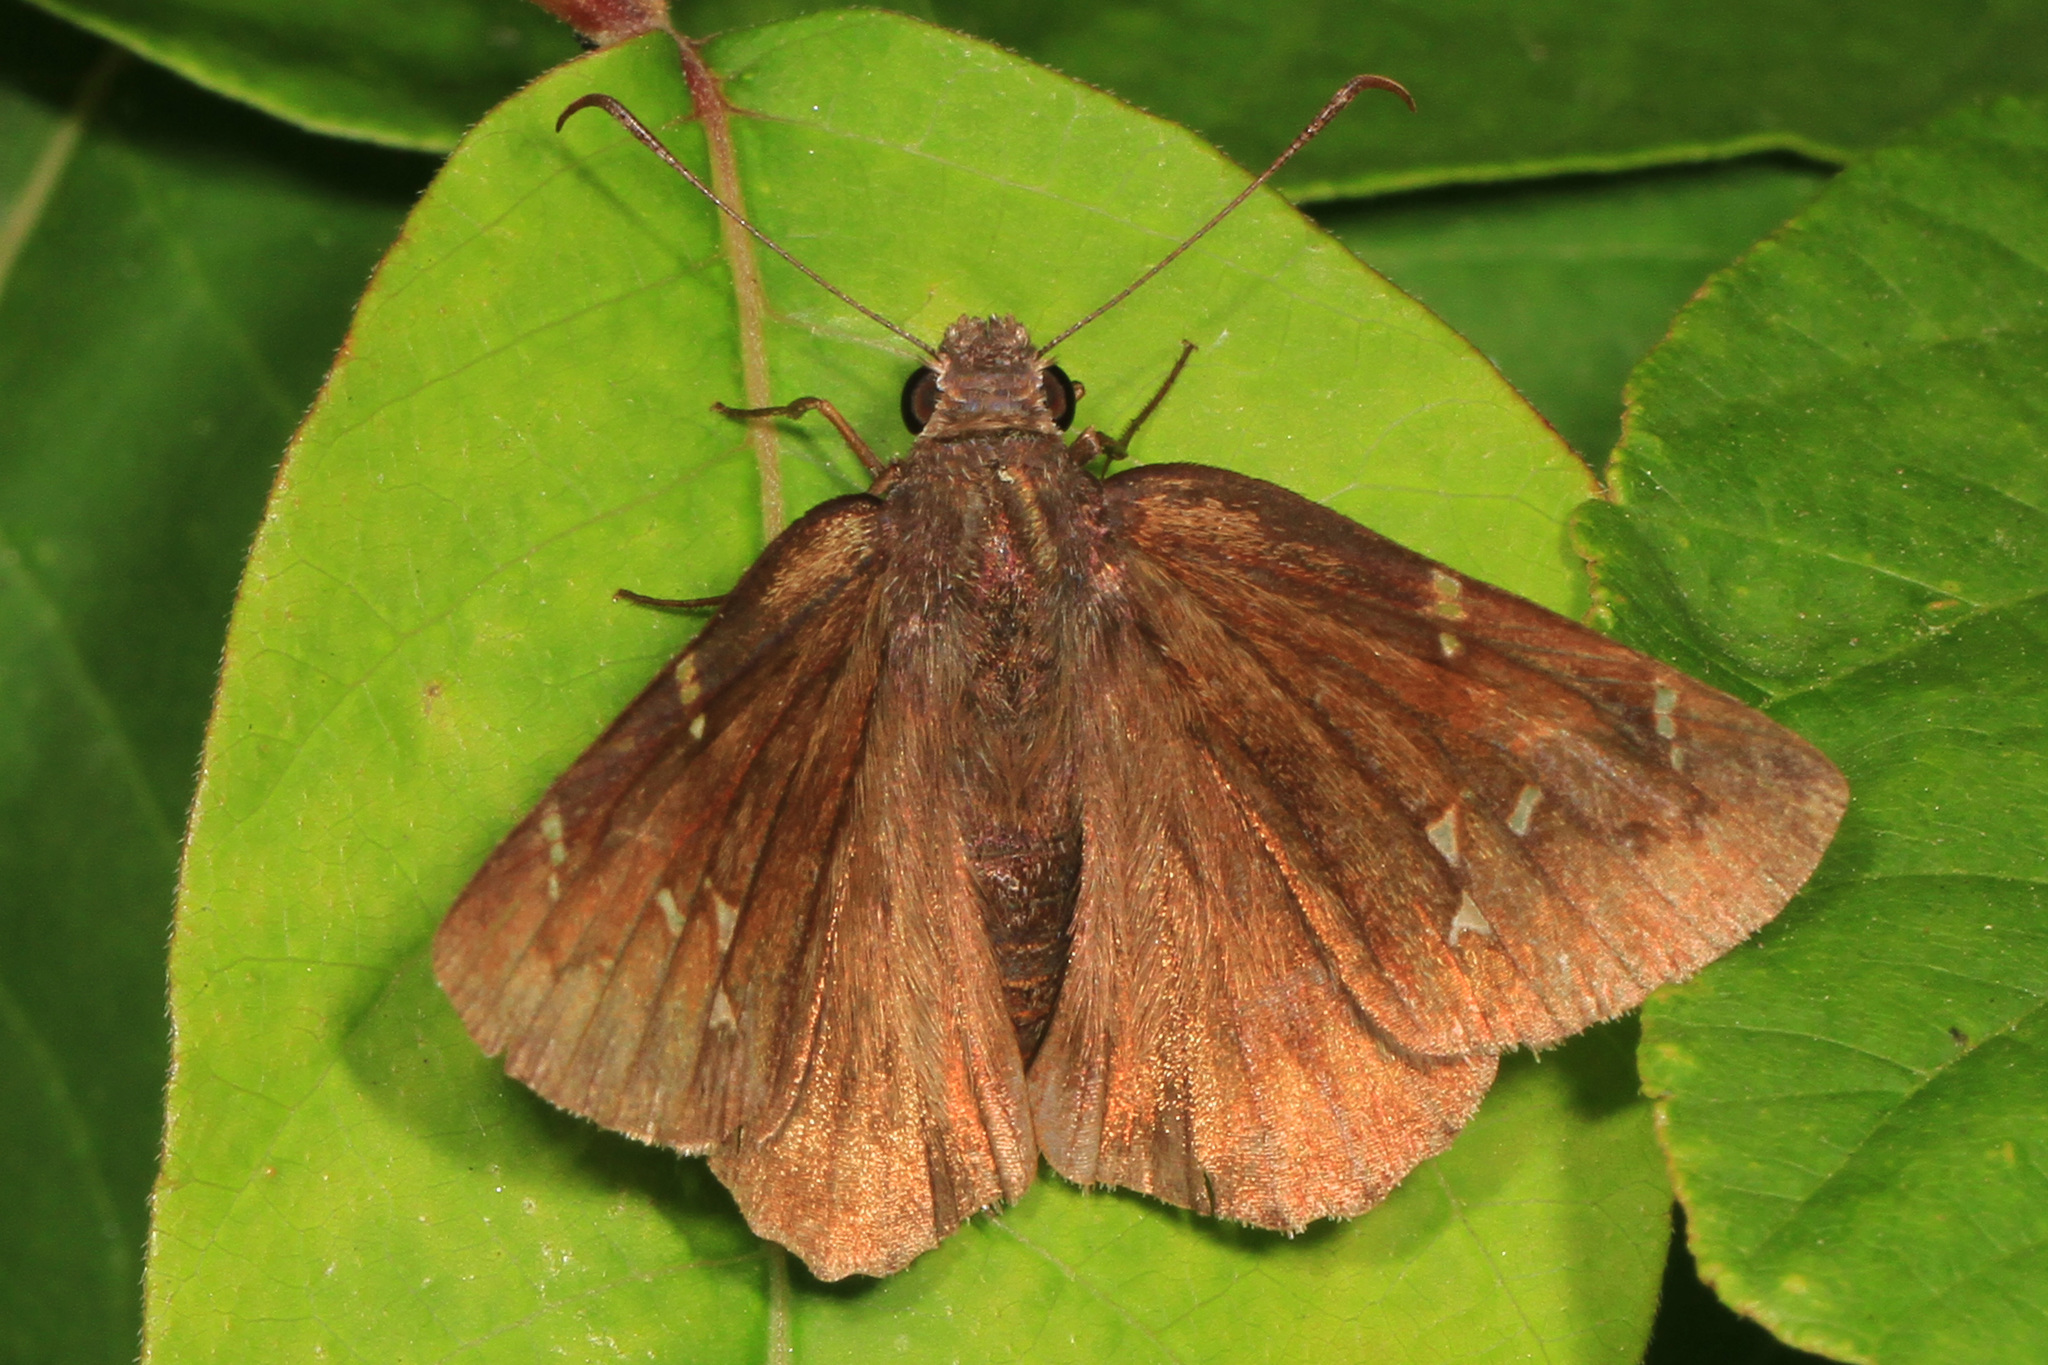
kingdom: Animalia
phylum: Arthropoda
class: Insecta
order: Lepidoptera
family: Hesperiidae
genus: Thorybes
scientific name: Thorybes pylades
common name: Northern cloudywing
